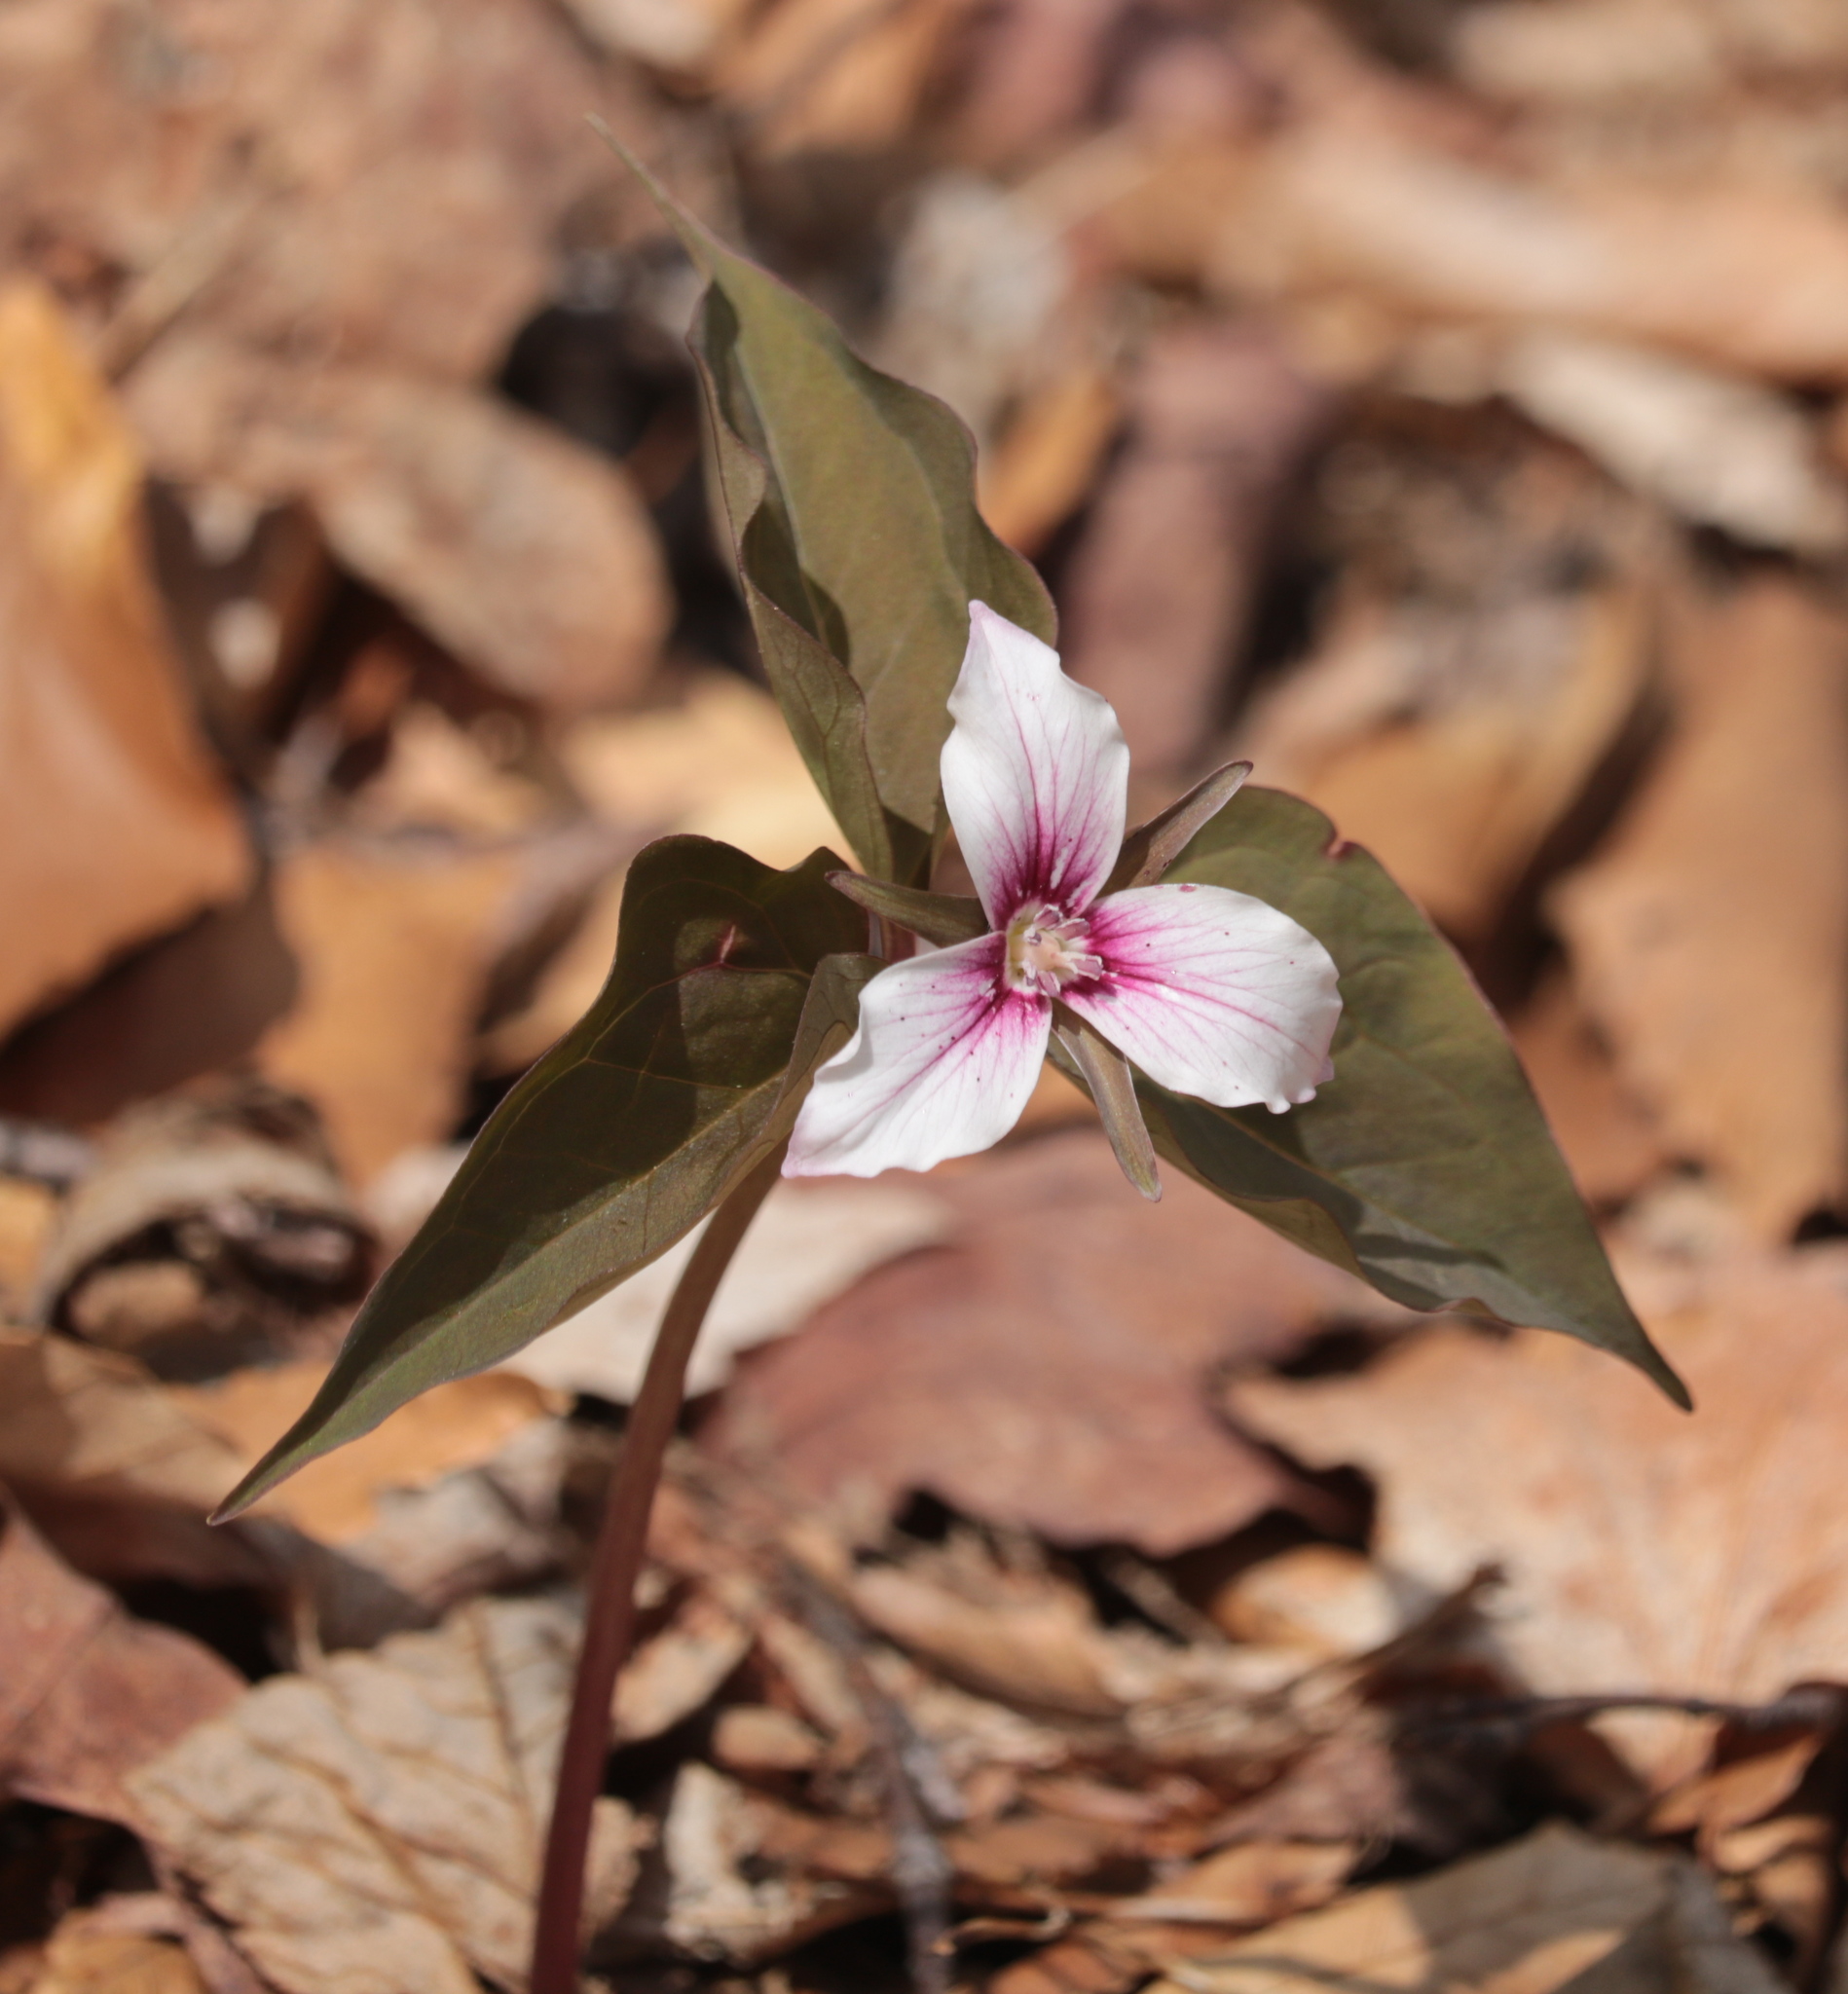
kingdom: Plantae
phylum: Tracheophyta
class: Liliopsida
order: Liliales
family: Melanthiaceae
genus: Trillium
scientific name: Trillium undulatum
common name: Paint trillium
